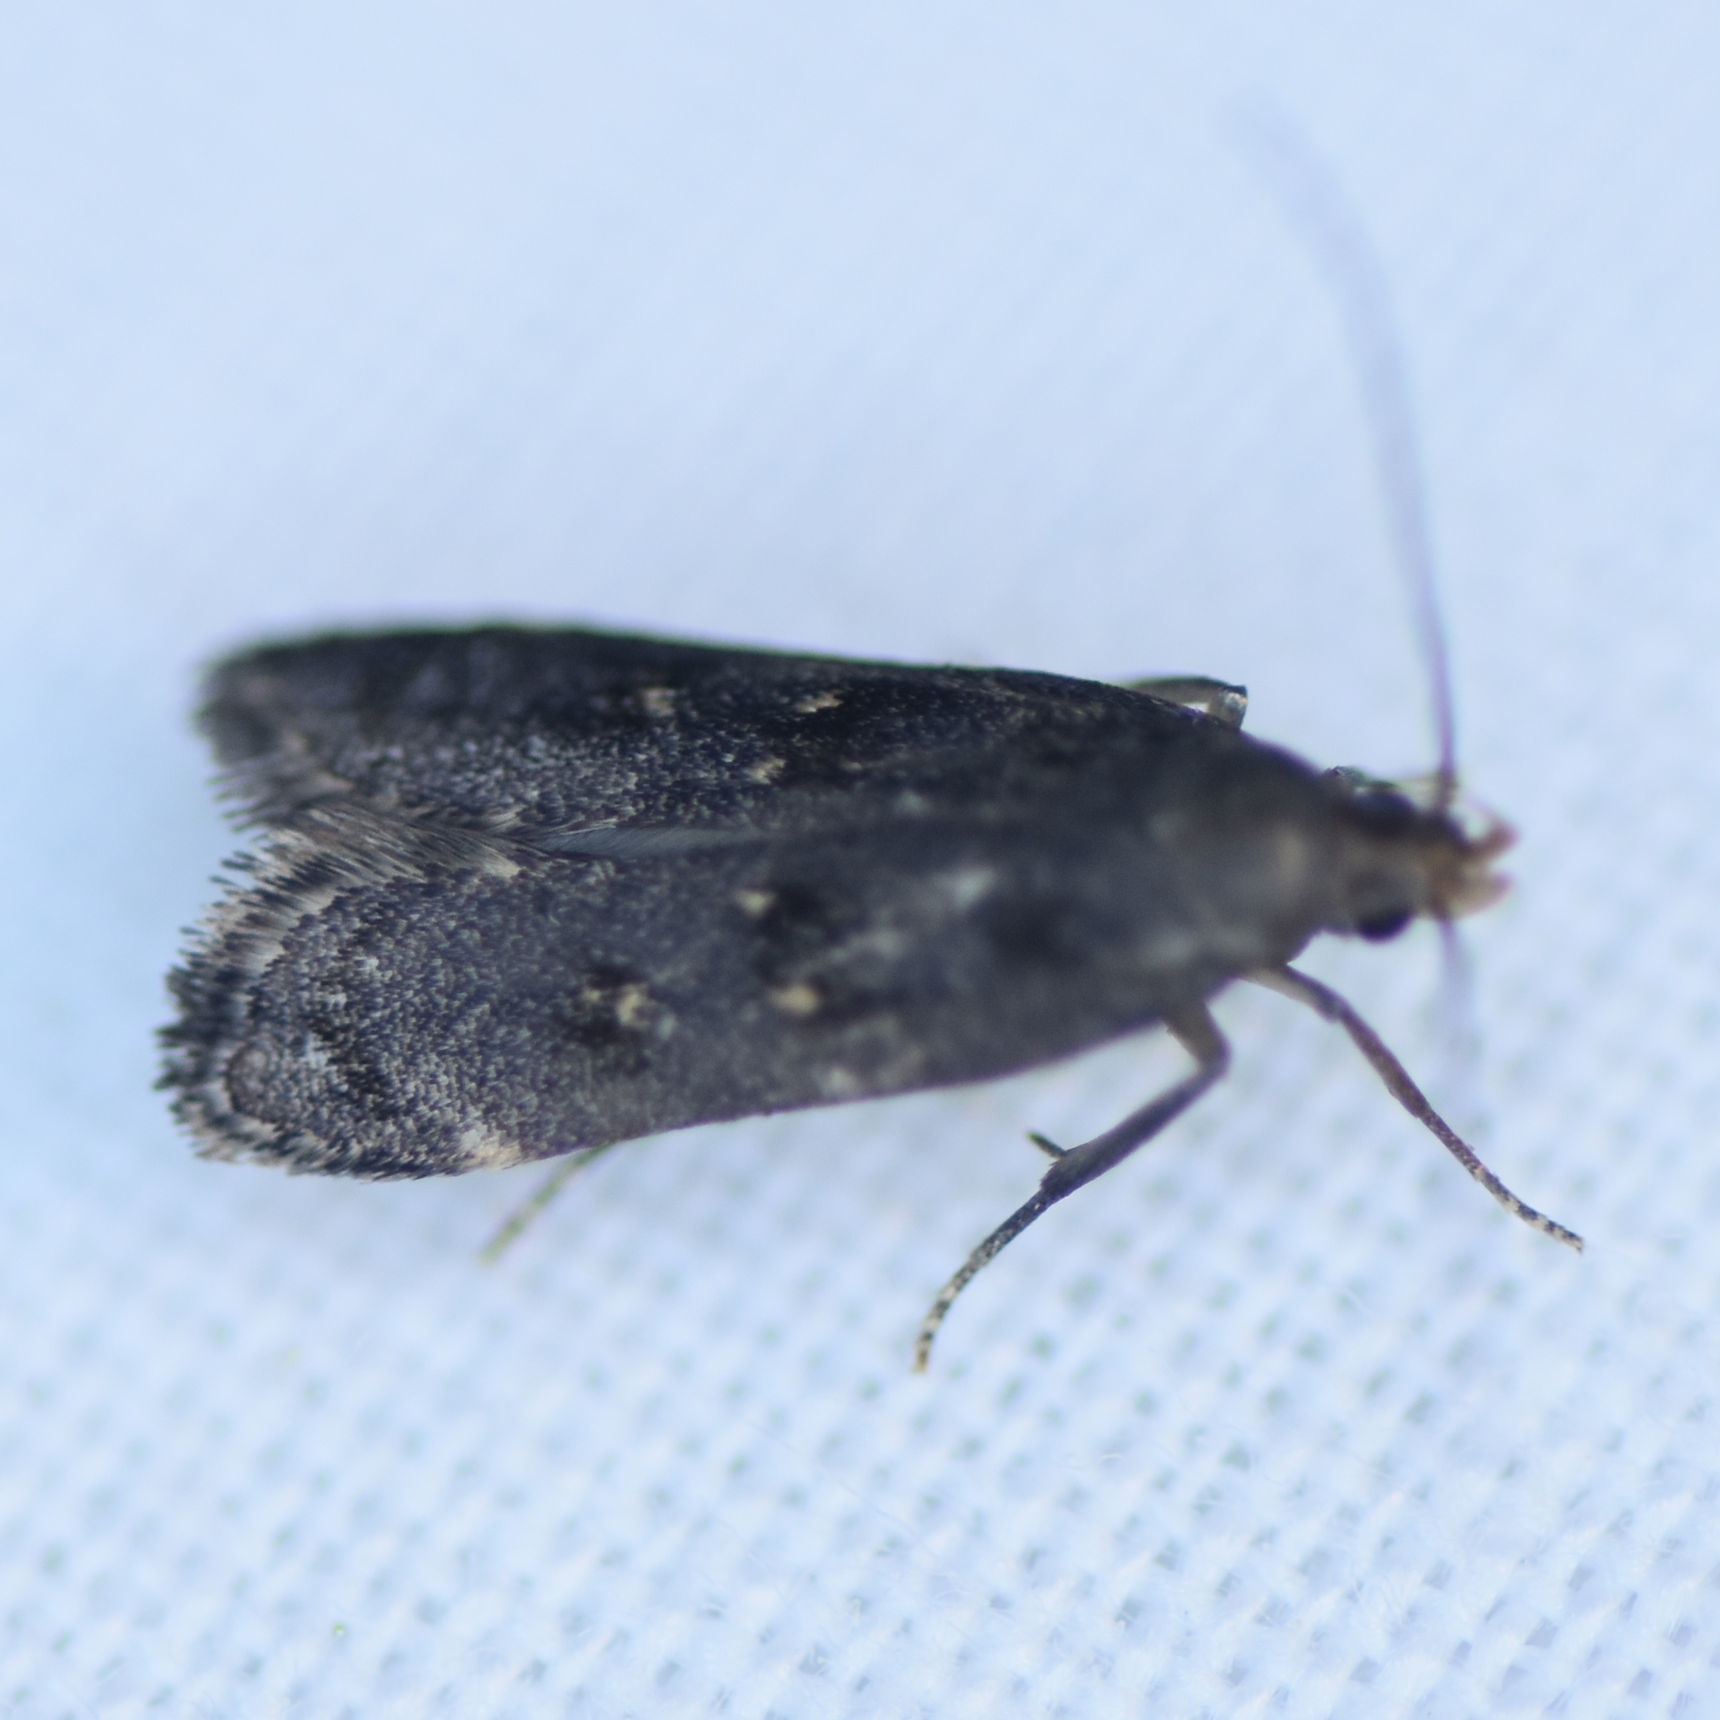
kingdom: Animalia
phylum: Arthropoda
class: Insecta
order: Lepidoptera
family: Gelechiidae
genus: Dichomeris
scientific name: Dichomeris juncidella
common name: Orange-dotted dichomeris moth
